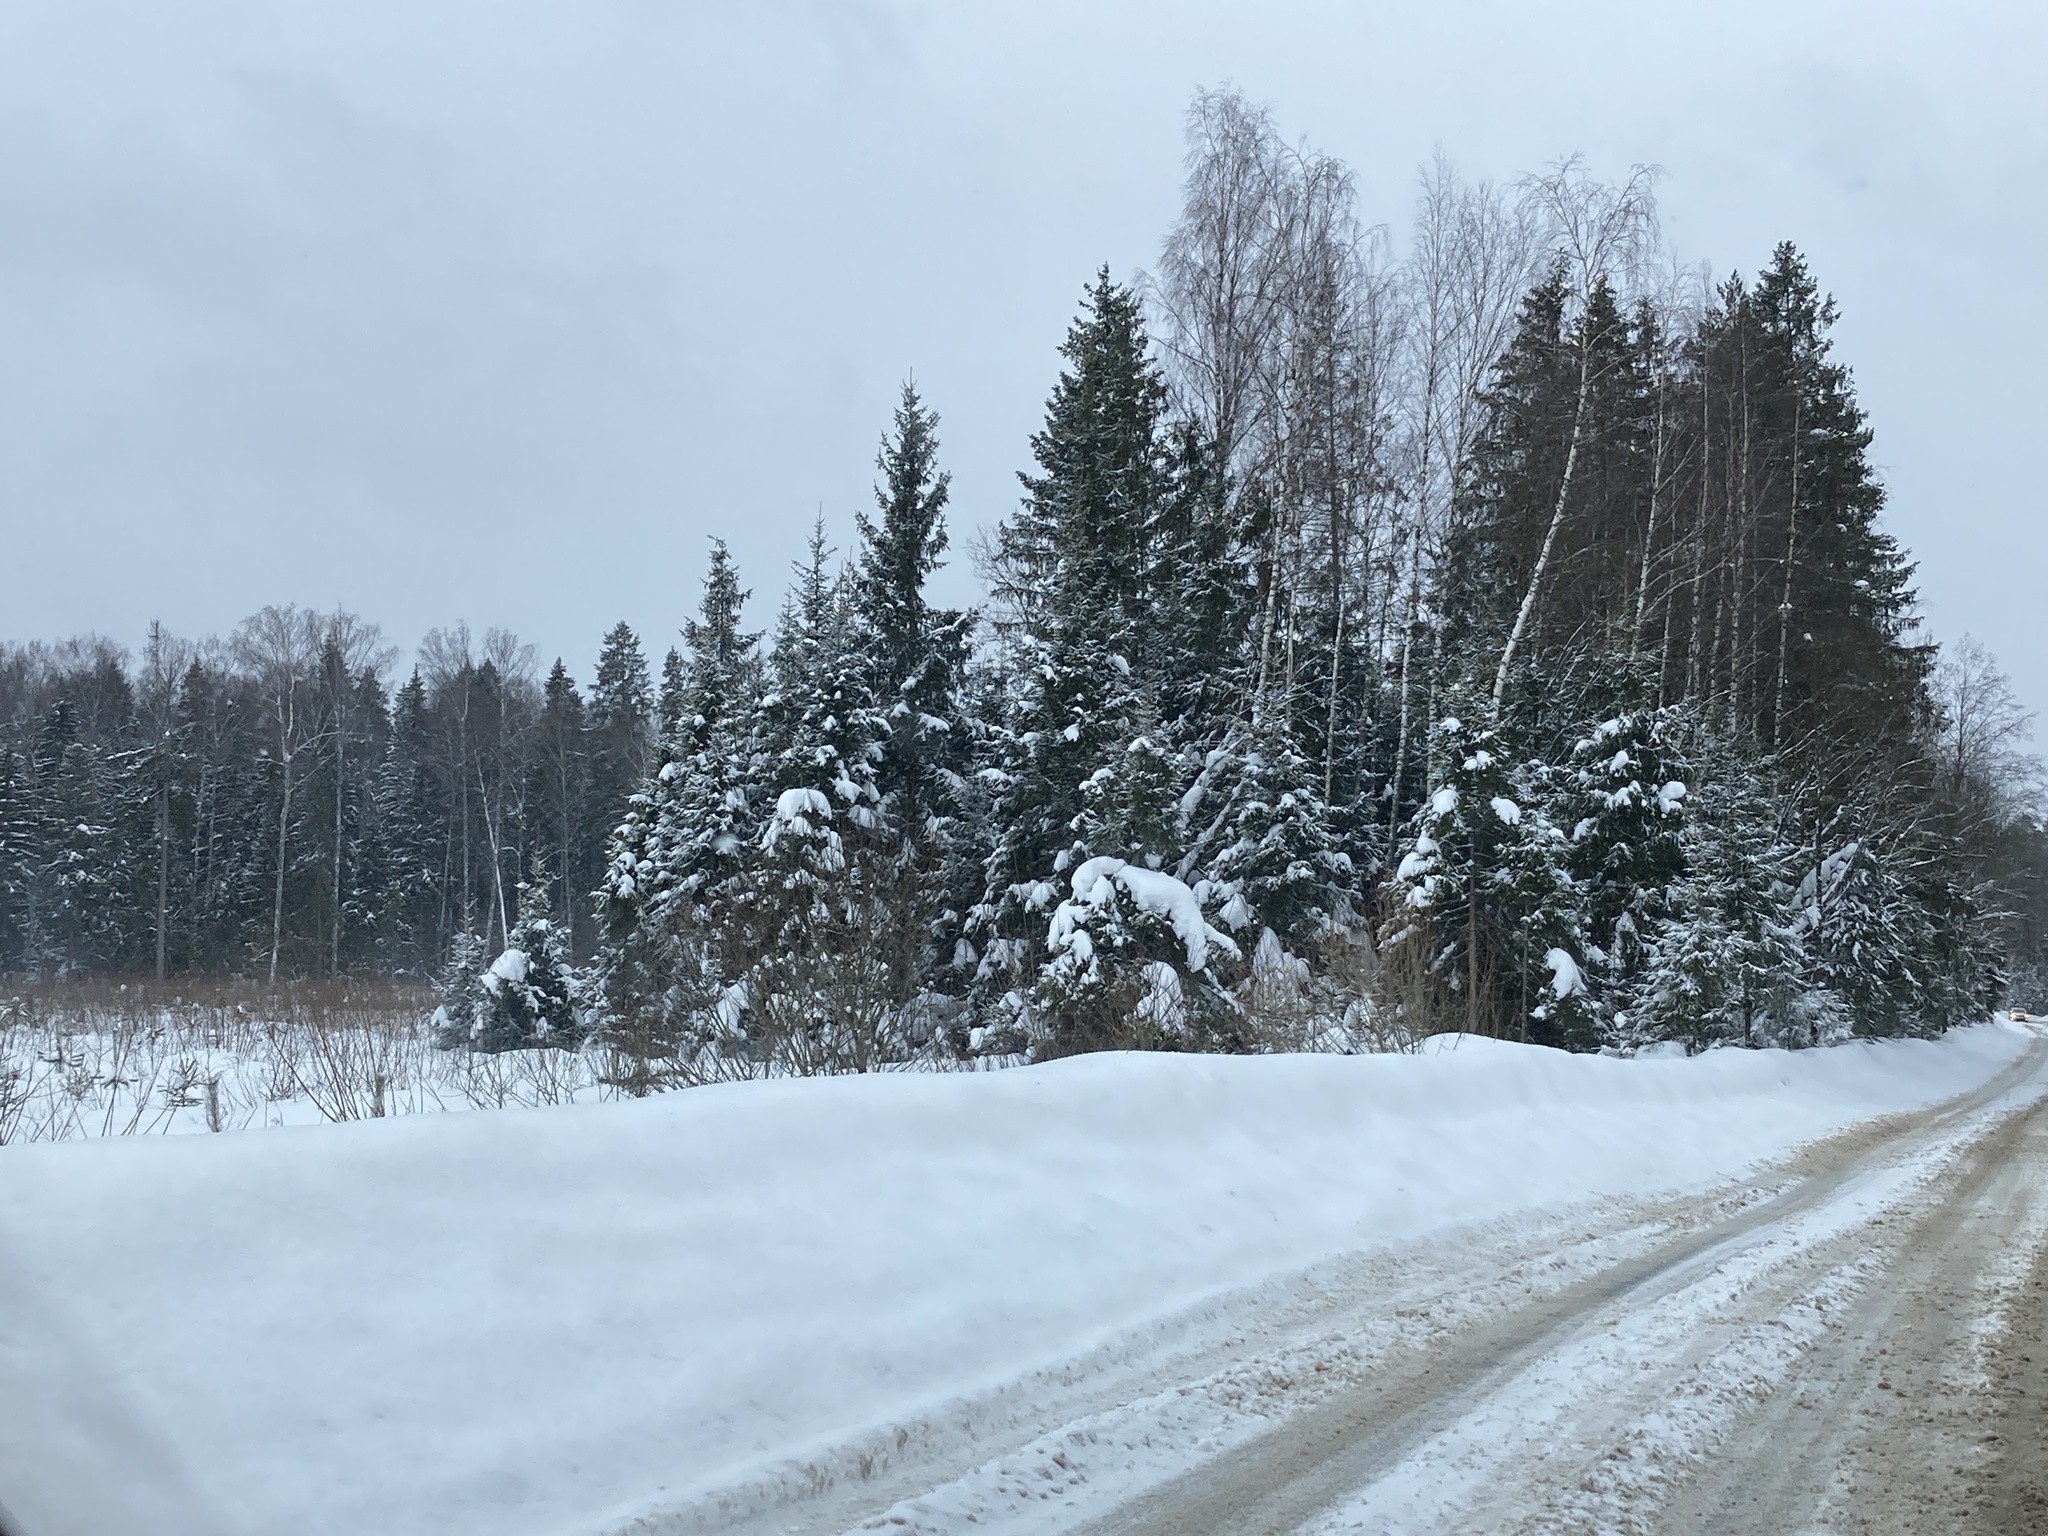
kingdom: Plantae
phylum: Tracheophyta
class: Pinopsida
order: Pinales
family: Pinaceae
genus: Picea
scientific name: Picea abies
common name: Norway spruce
